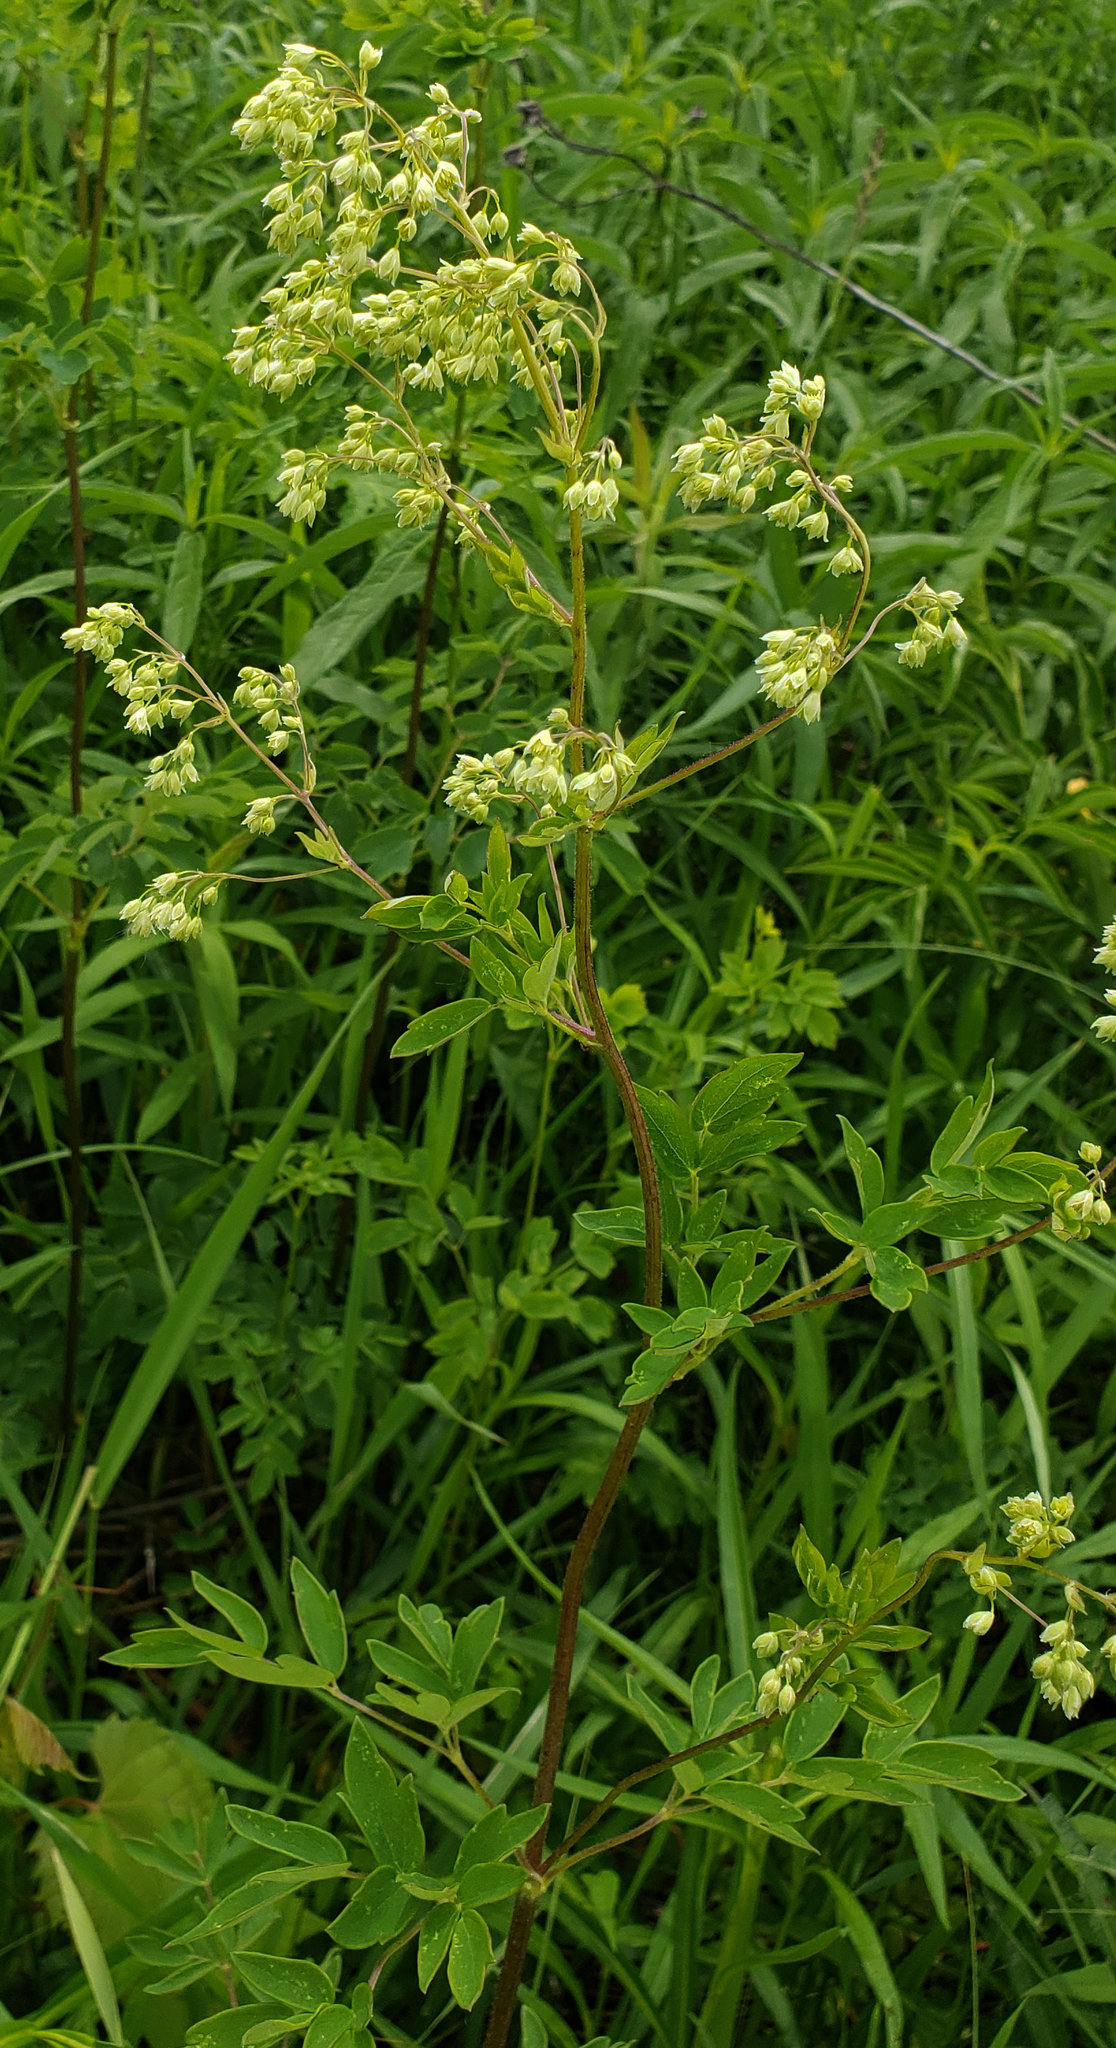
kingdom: Plantae
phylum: Tracheophyta
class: Magnoliopsida
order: Ranunculales
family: Ranunculaceae
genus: Thalictrum
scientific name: Thalictrum dasycarpum
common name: Purple meadow-rue
